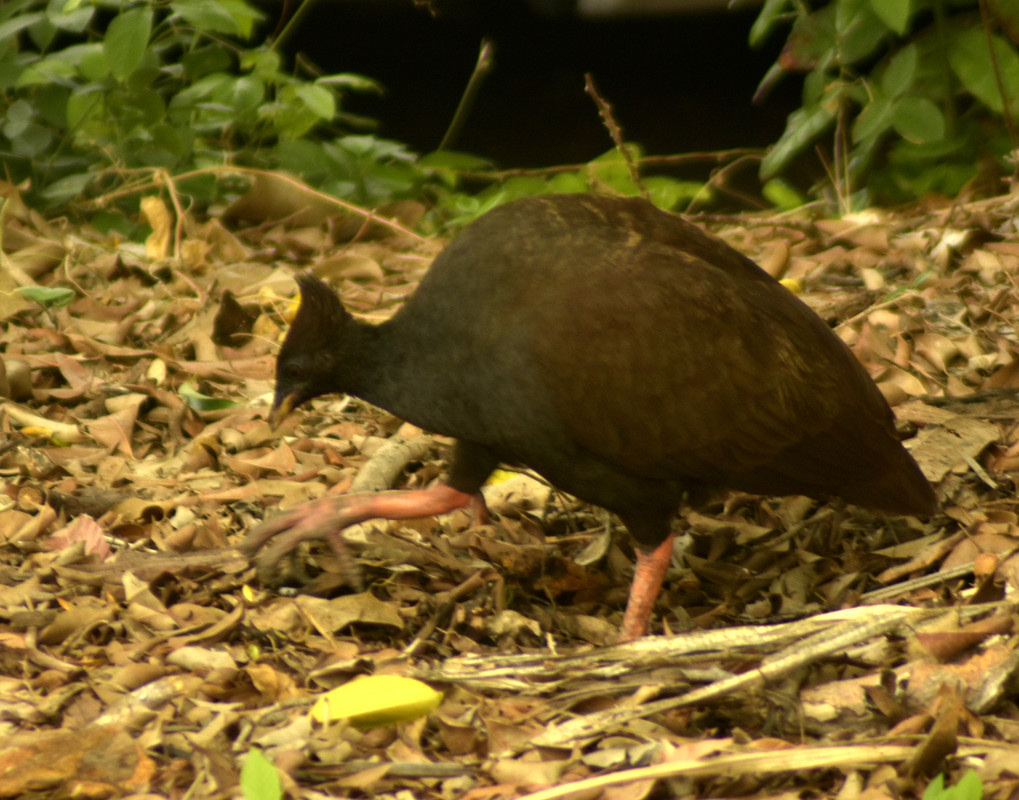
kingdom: Animalia
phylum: Chordata
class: Aves
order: Galliformes
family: Megapodiidae
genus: Megapodius
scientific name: Megapodius reinwardt
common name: Orange-footed scrubfowl
